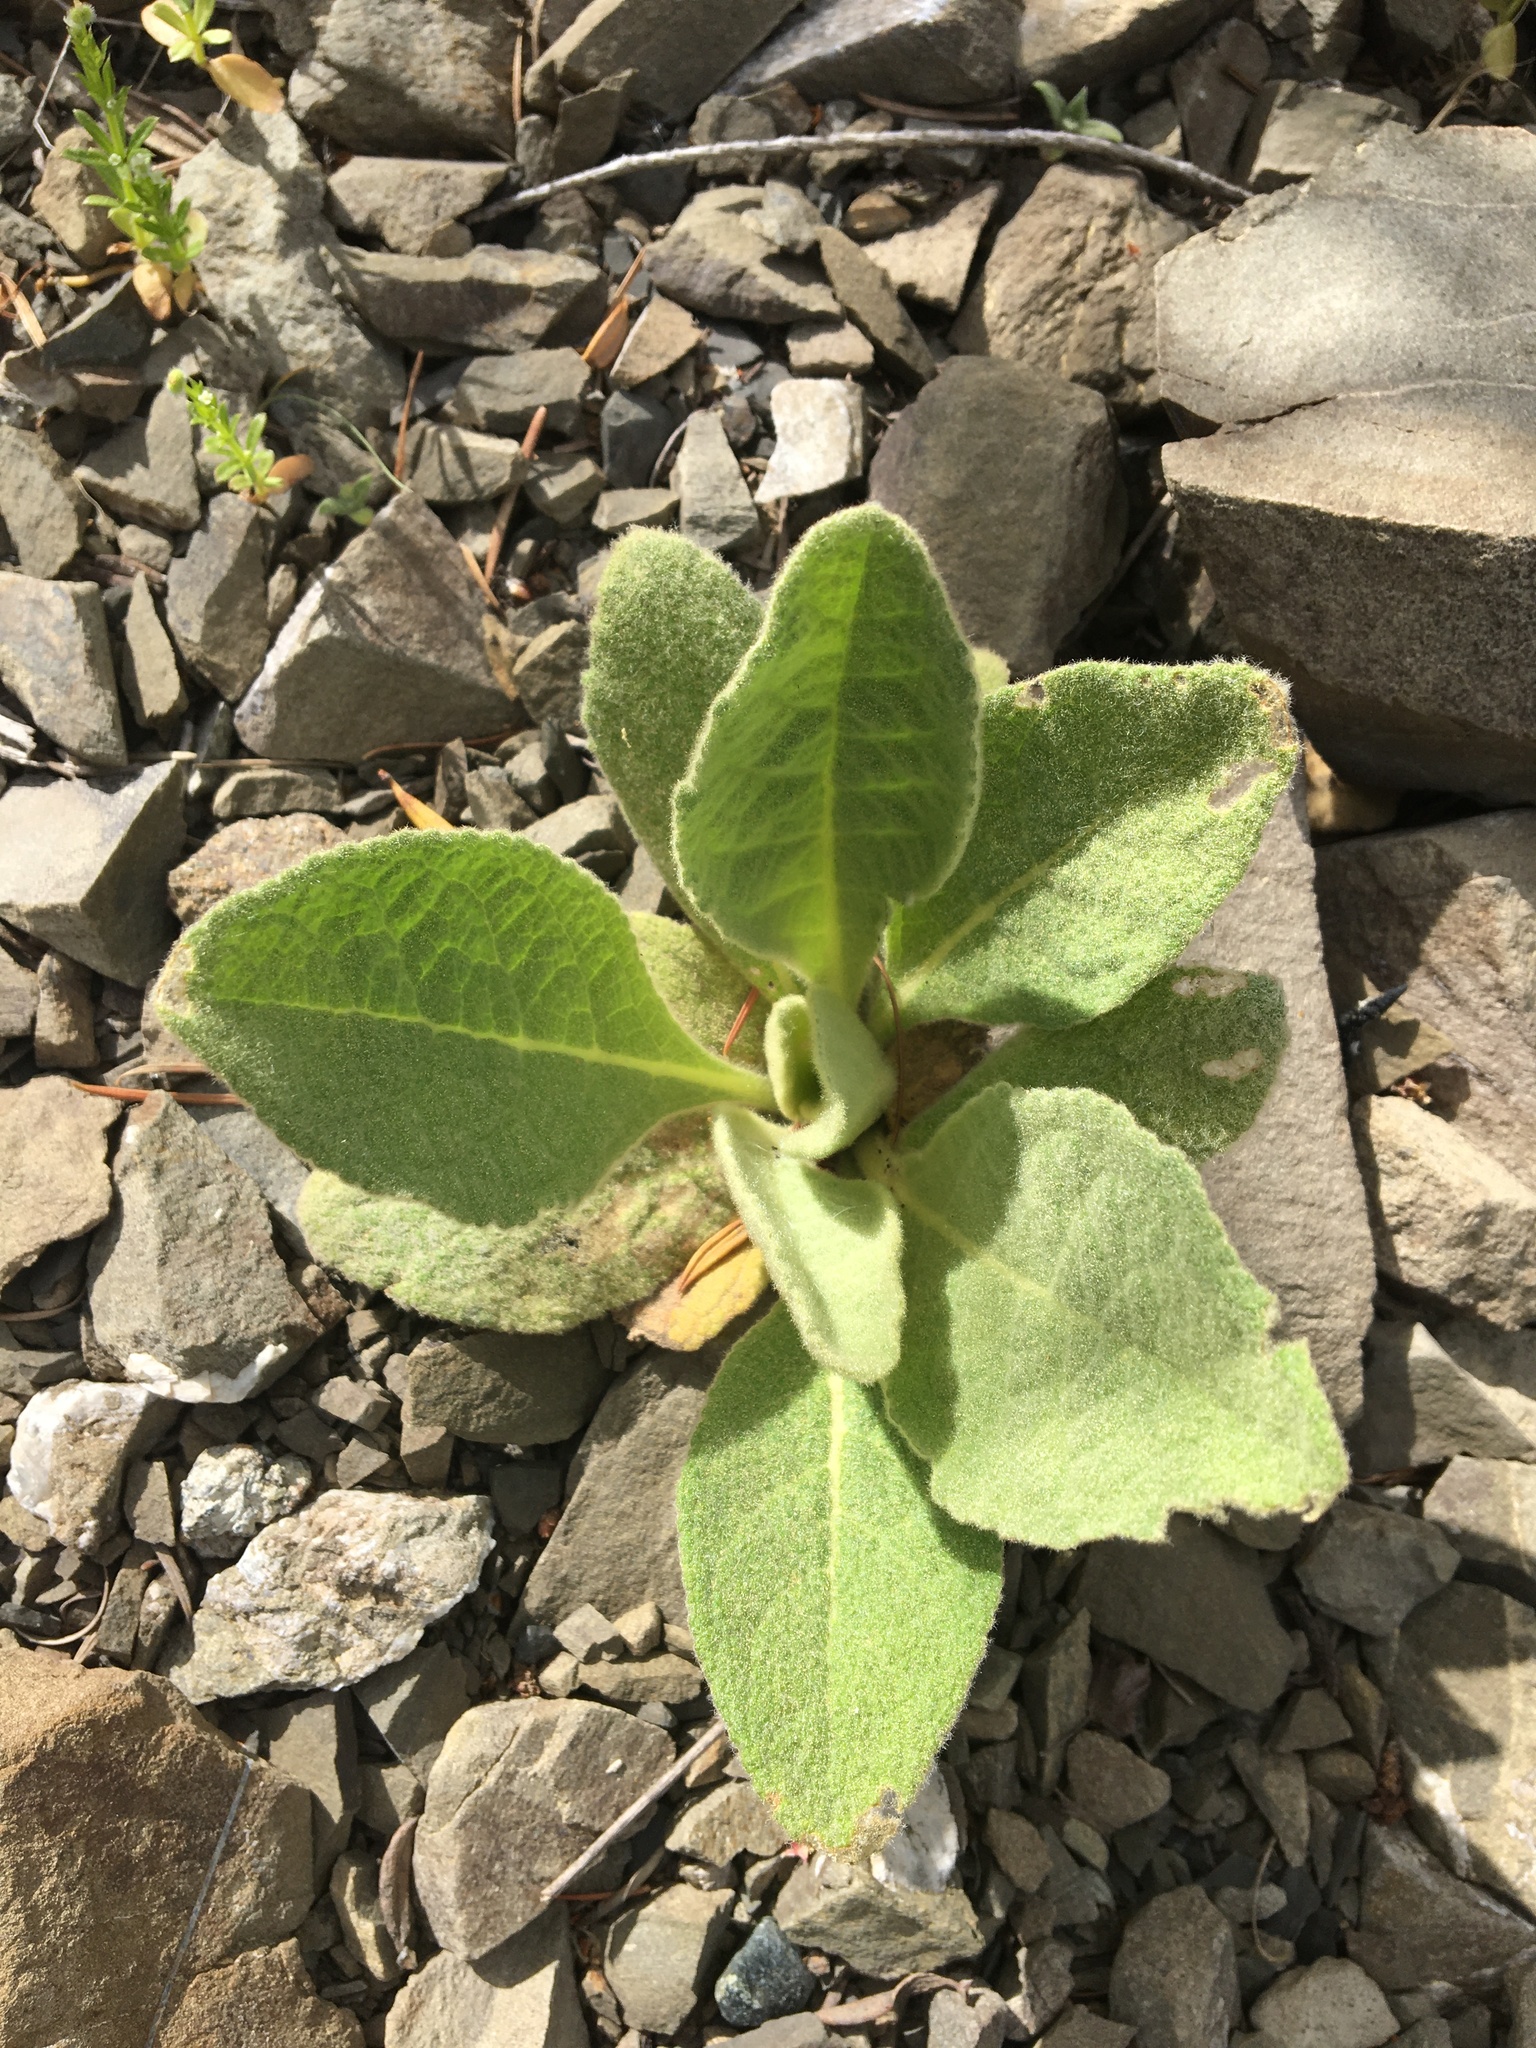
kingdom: Plantae
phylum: Tracheophyta
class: Magnoliopsida
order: Lamiales
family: Scrophulariaceae
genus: Verbascum
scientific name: Verbascum thapsus
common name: Common mullein
